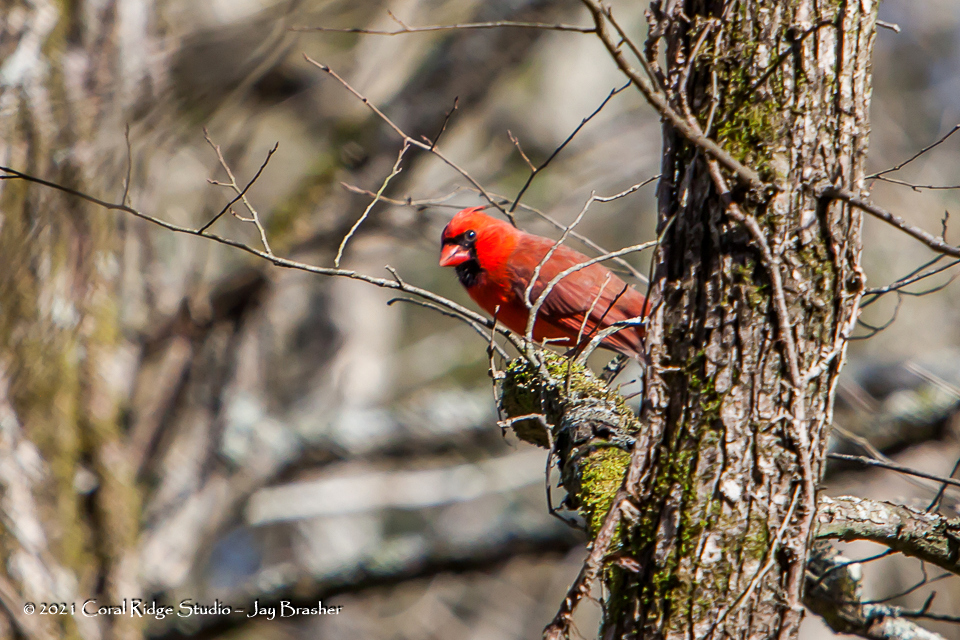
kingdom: Animalia
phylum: Chordata
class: Aves
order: Passeriformes
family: Cardinalidae
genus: Cardinalis
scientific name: Cardinalis cardinalis
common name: Northern cardinal
